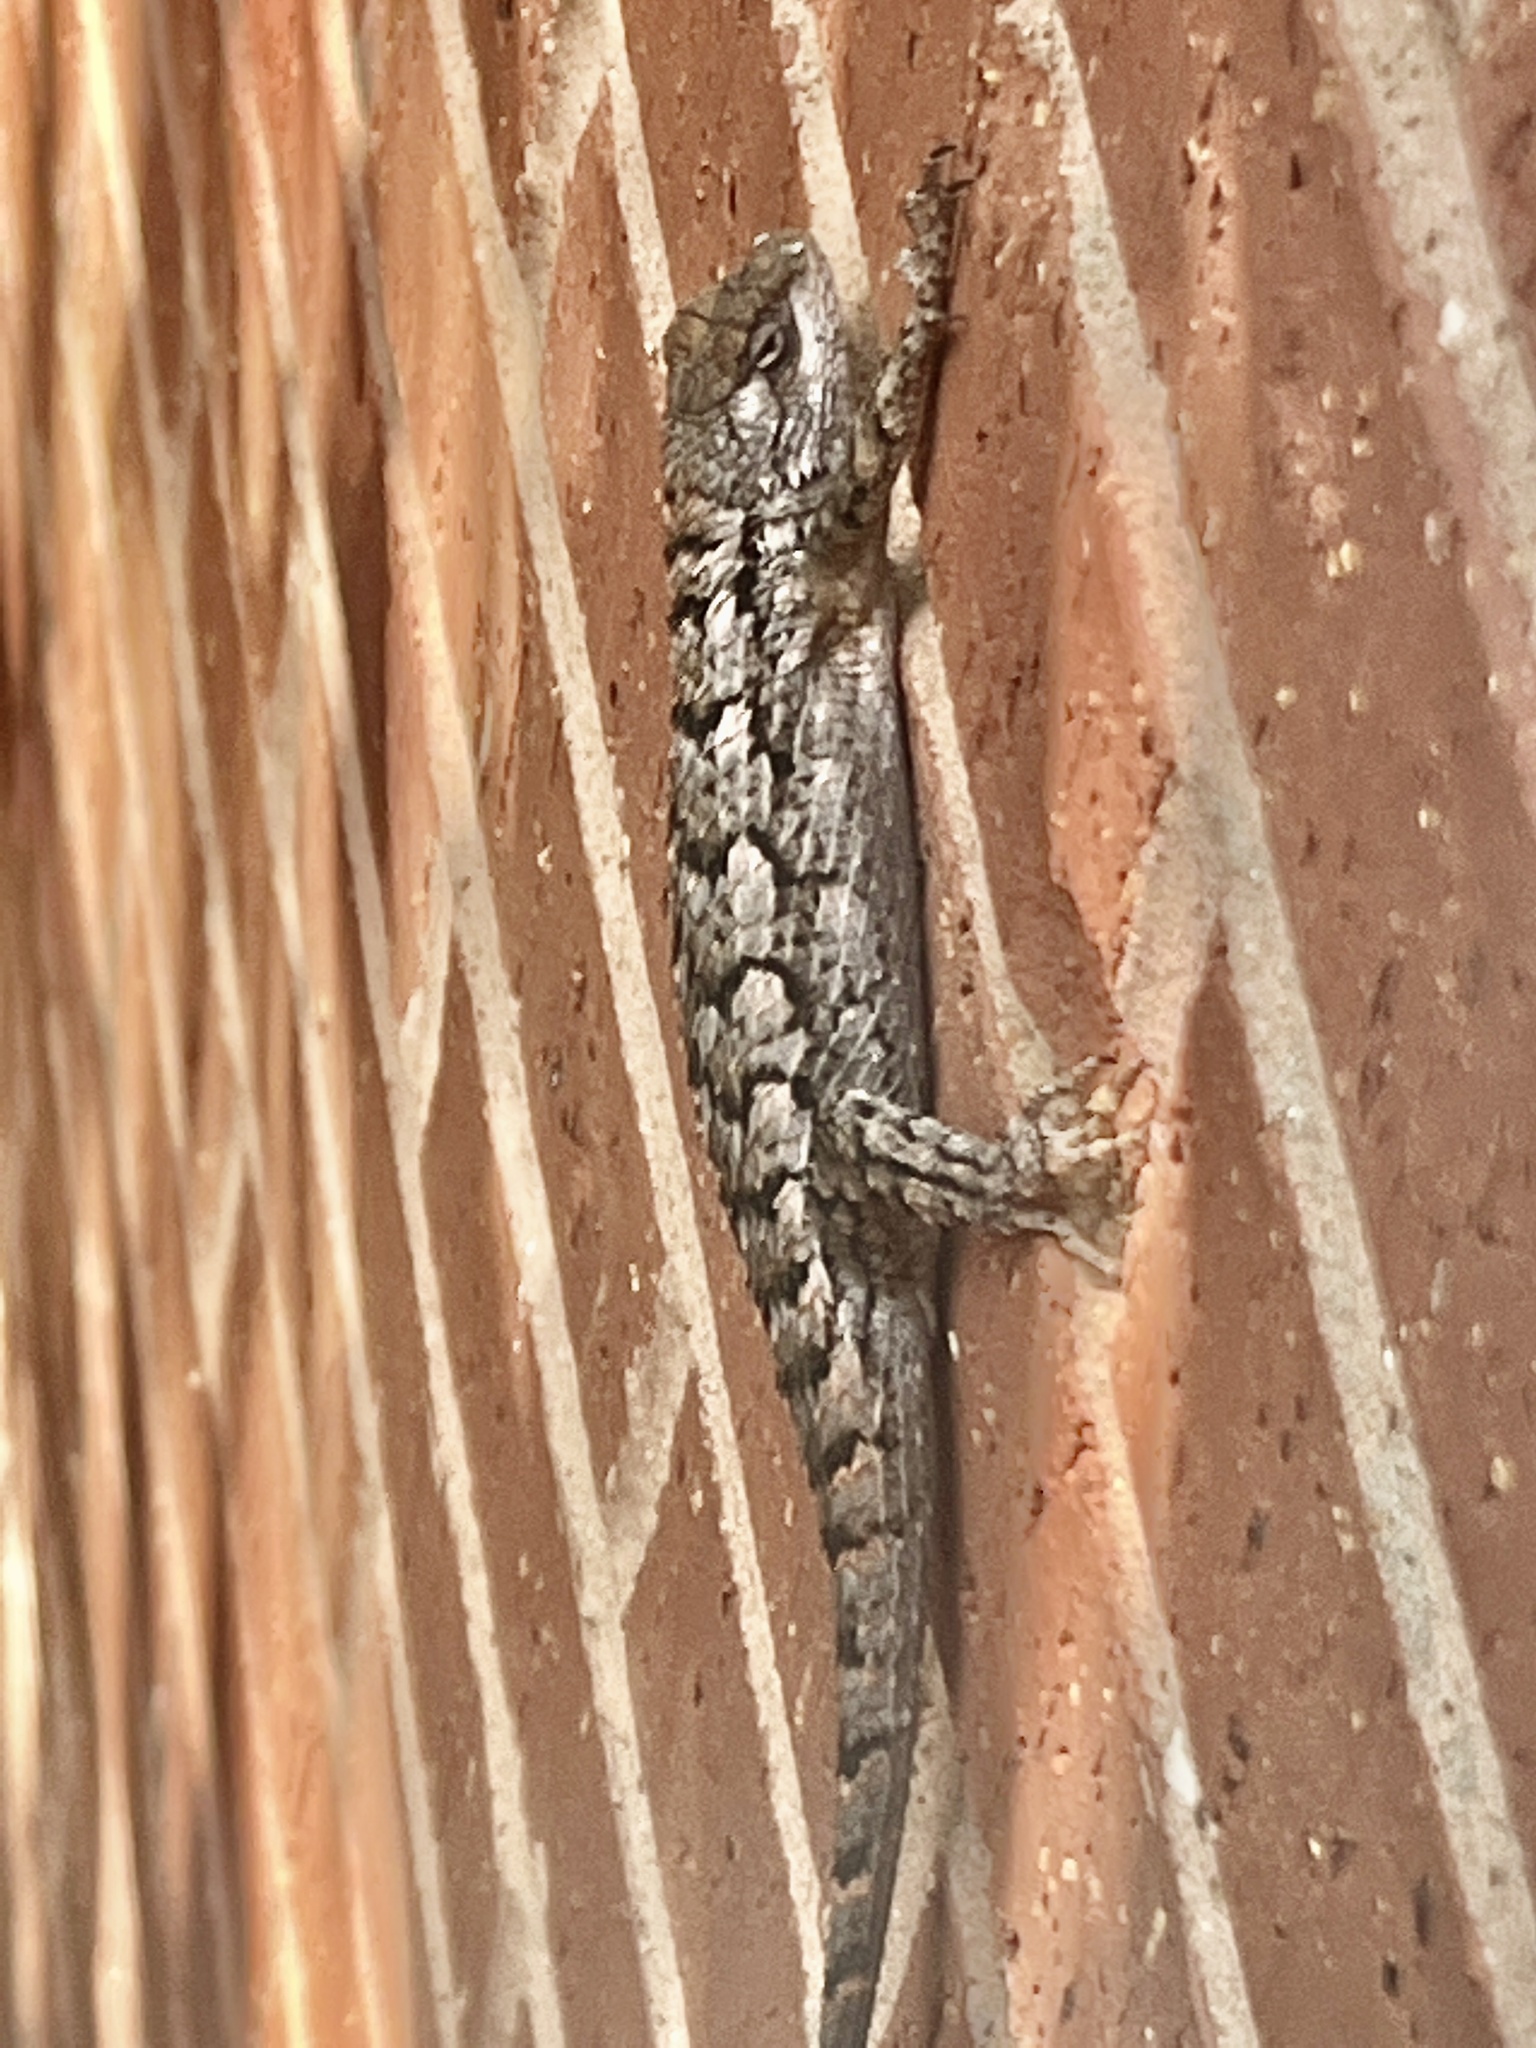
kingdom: Animalia
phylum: Chordata
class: Squamata
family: Phrynosomatidae
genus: Sceloporus
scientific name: Sceloporus olivaceus
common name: Texas spiny lizard
